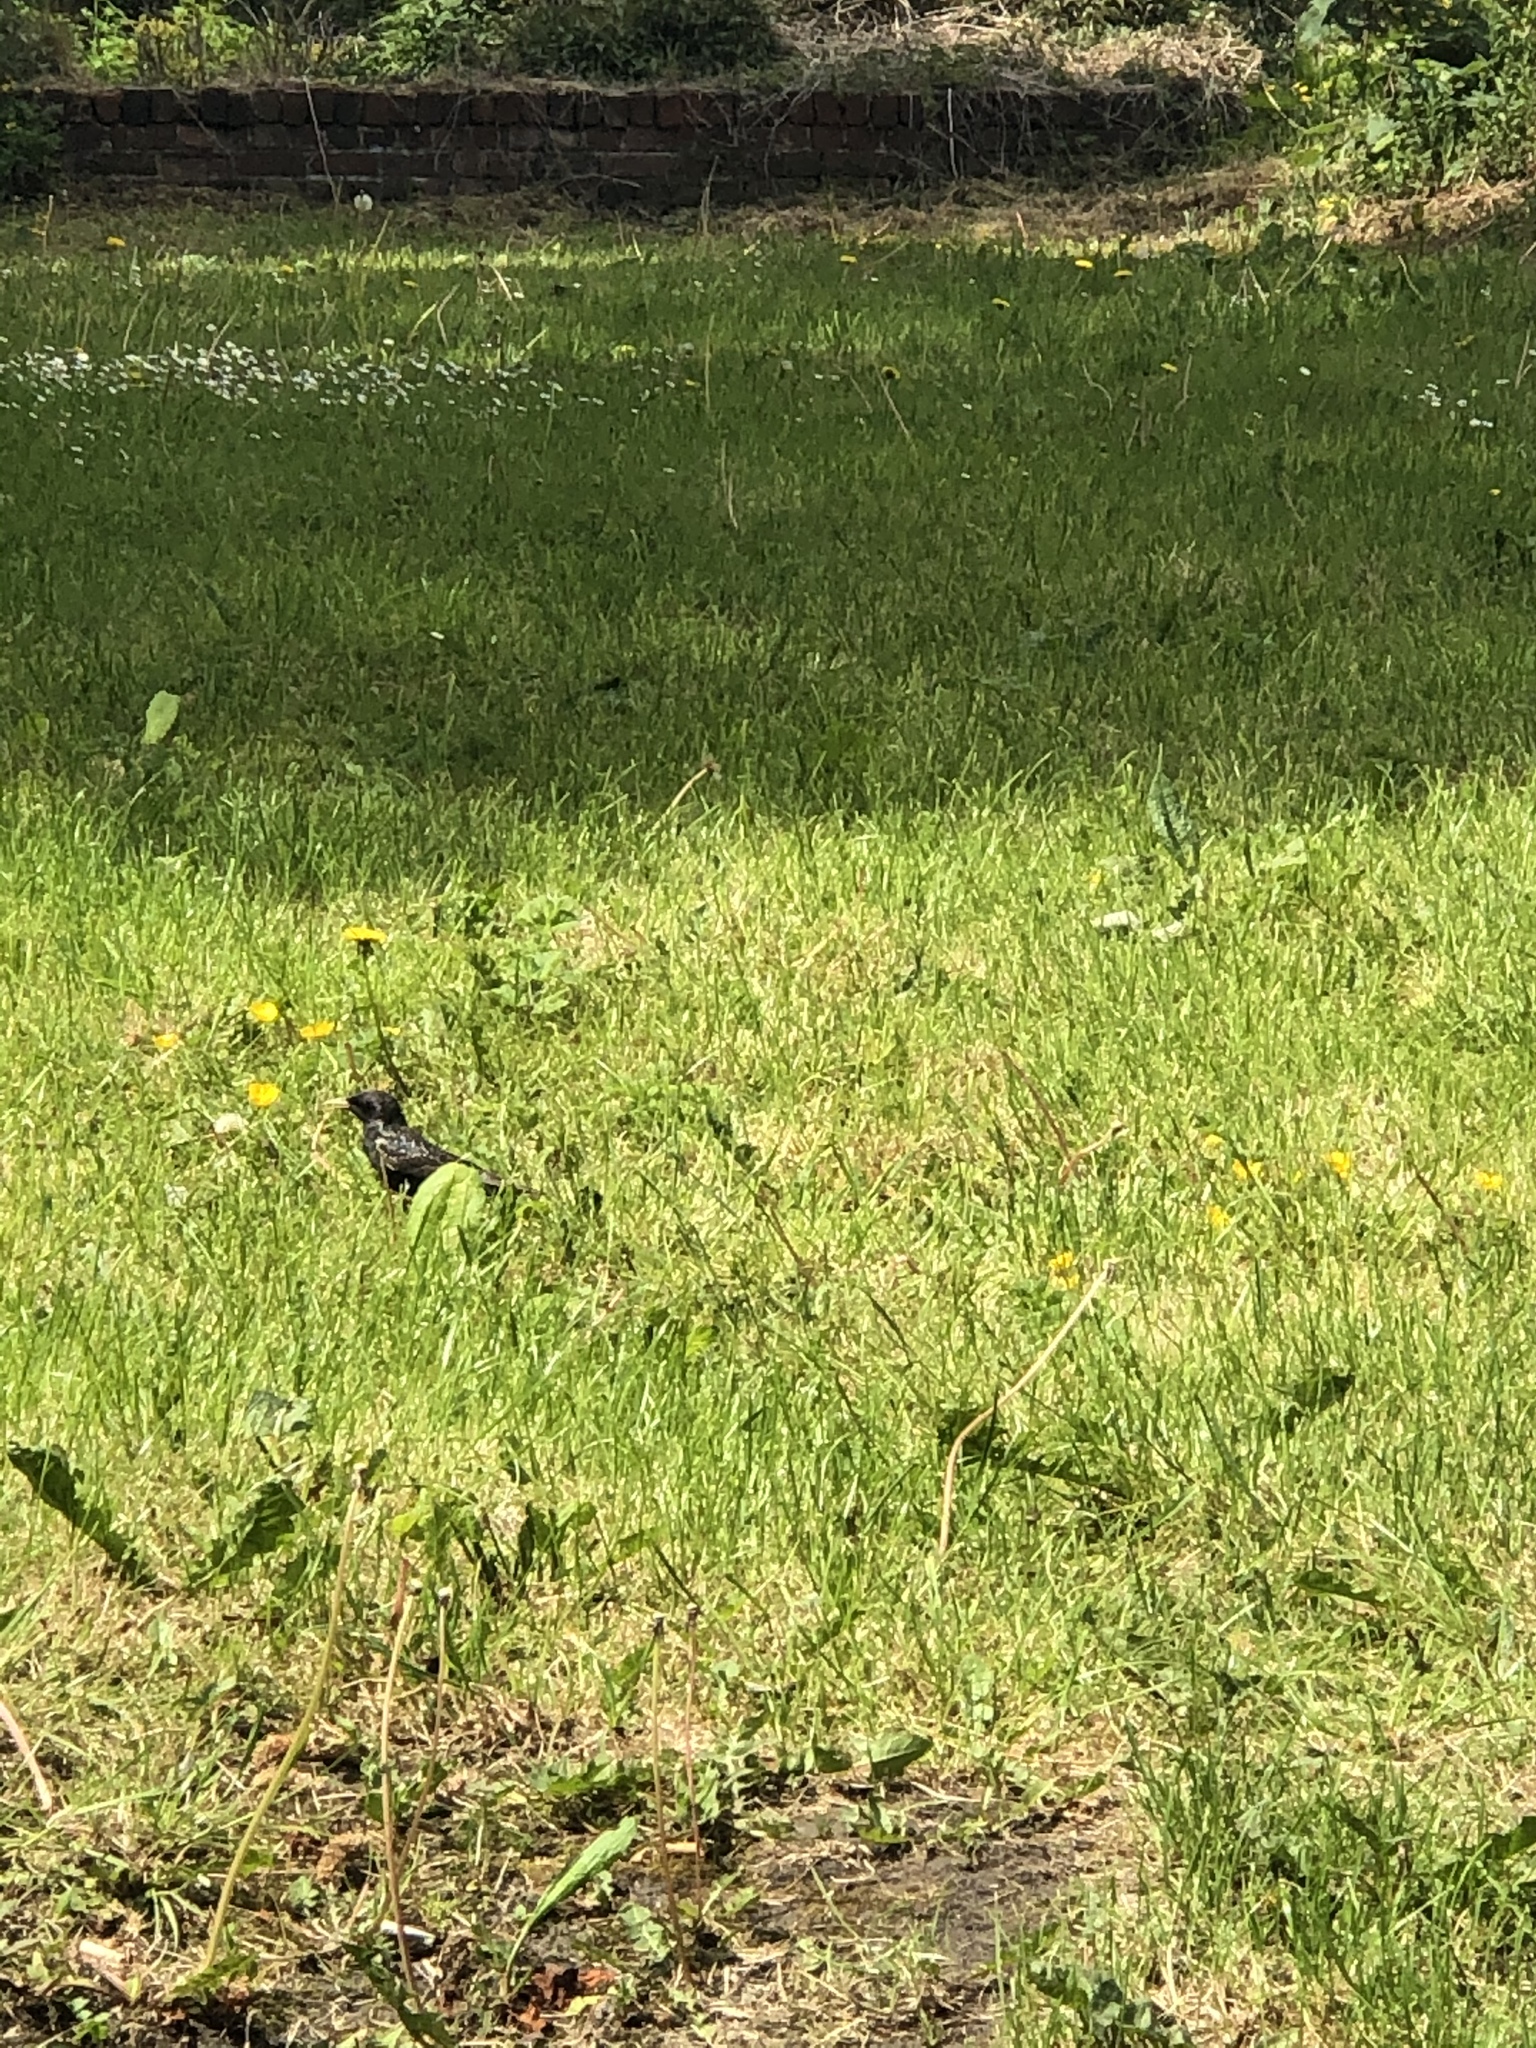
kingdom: Animalia
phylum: Chordata
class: Aves
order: Passeriformes
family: Sturnidae
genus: Sturnus
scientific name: Sturnus vulgaris
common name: Common starling
